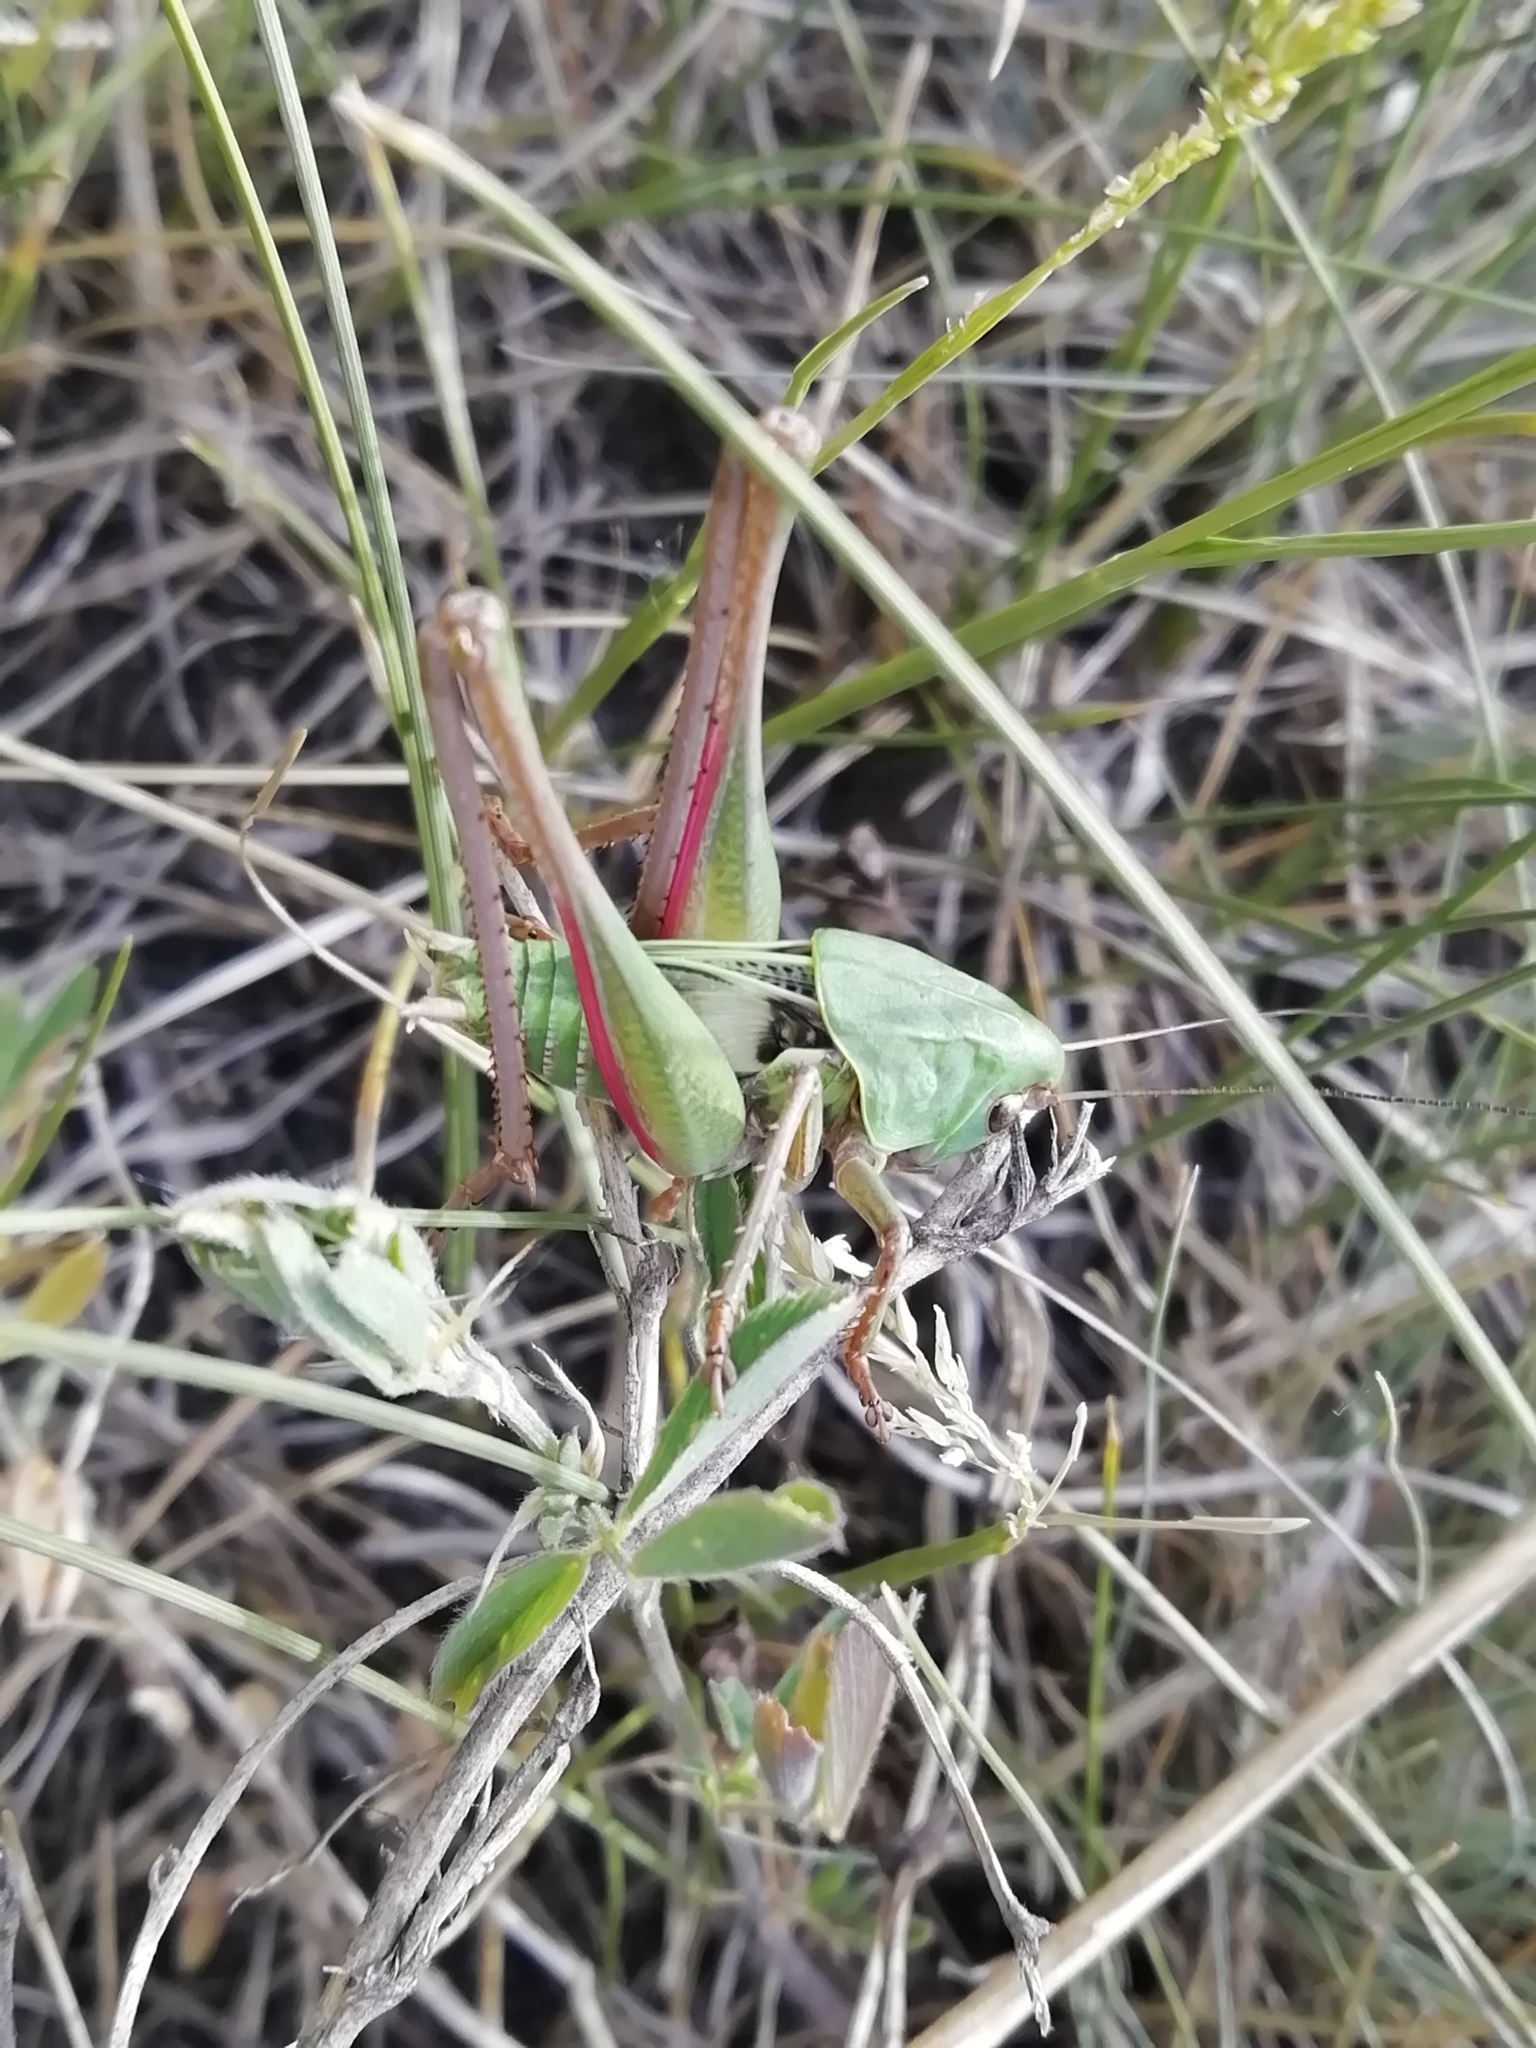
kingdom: Animalia
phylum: Arthropoda
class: Insecta
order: Orthoptera
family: Tettigoniidae
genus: Decticus
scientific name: Decticus verrucivorus
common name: Wart-biter
